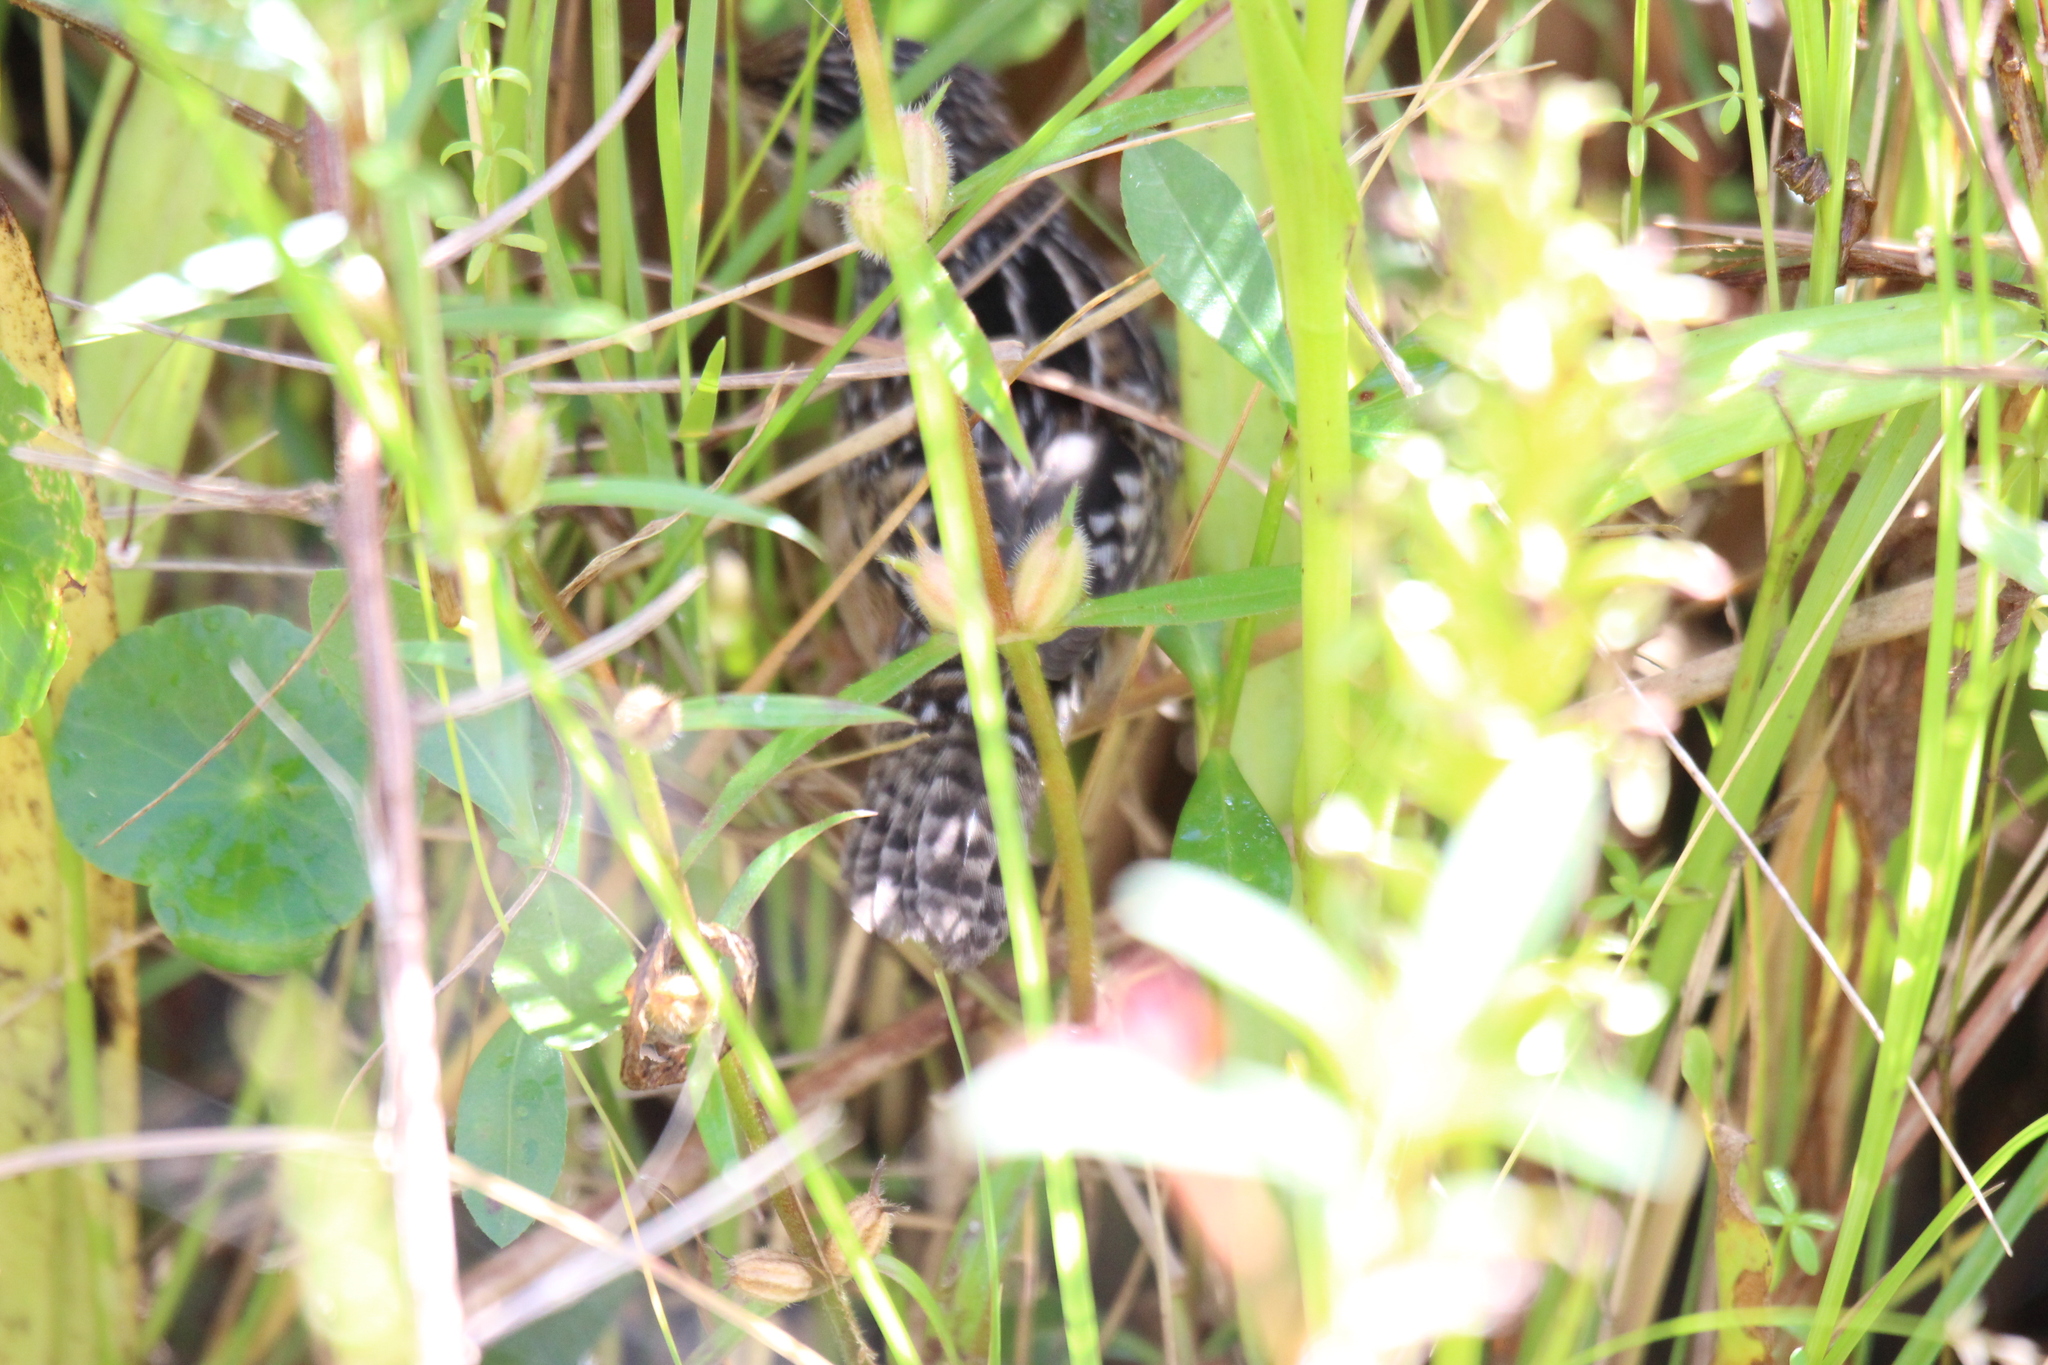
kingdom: Animalia
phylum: Chordata
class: Aves
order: Passeriformes
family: Troglodytidae
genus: Cistothorus
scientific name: Cistothorus platensis
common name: Sedge wren
